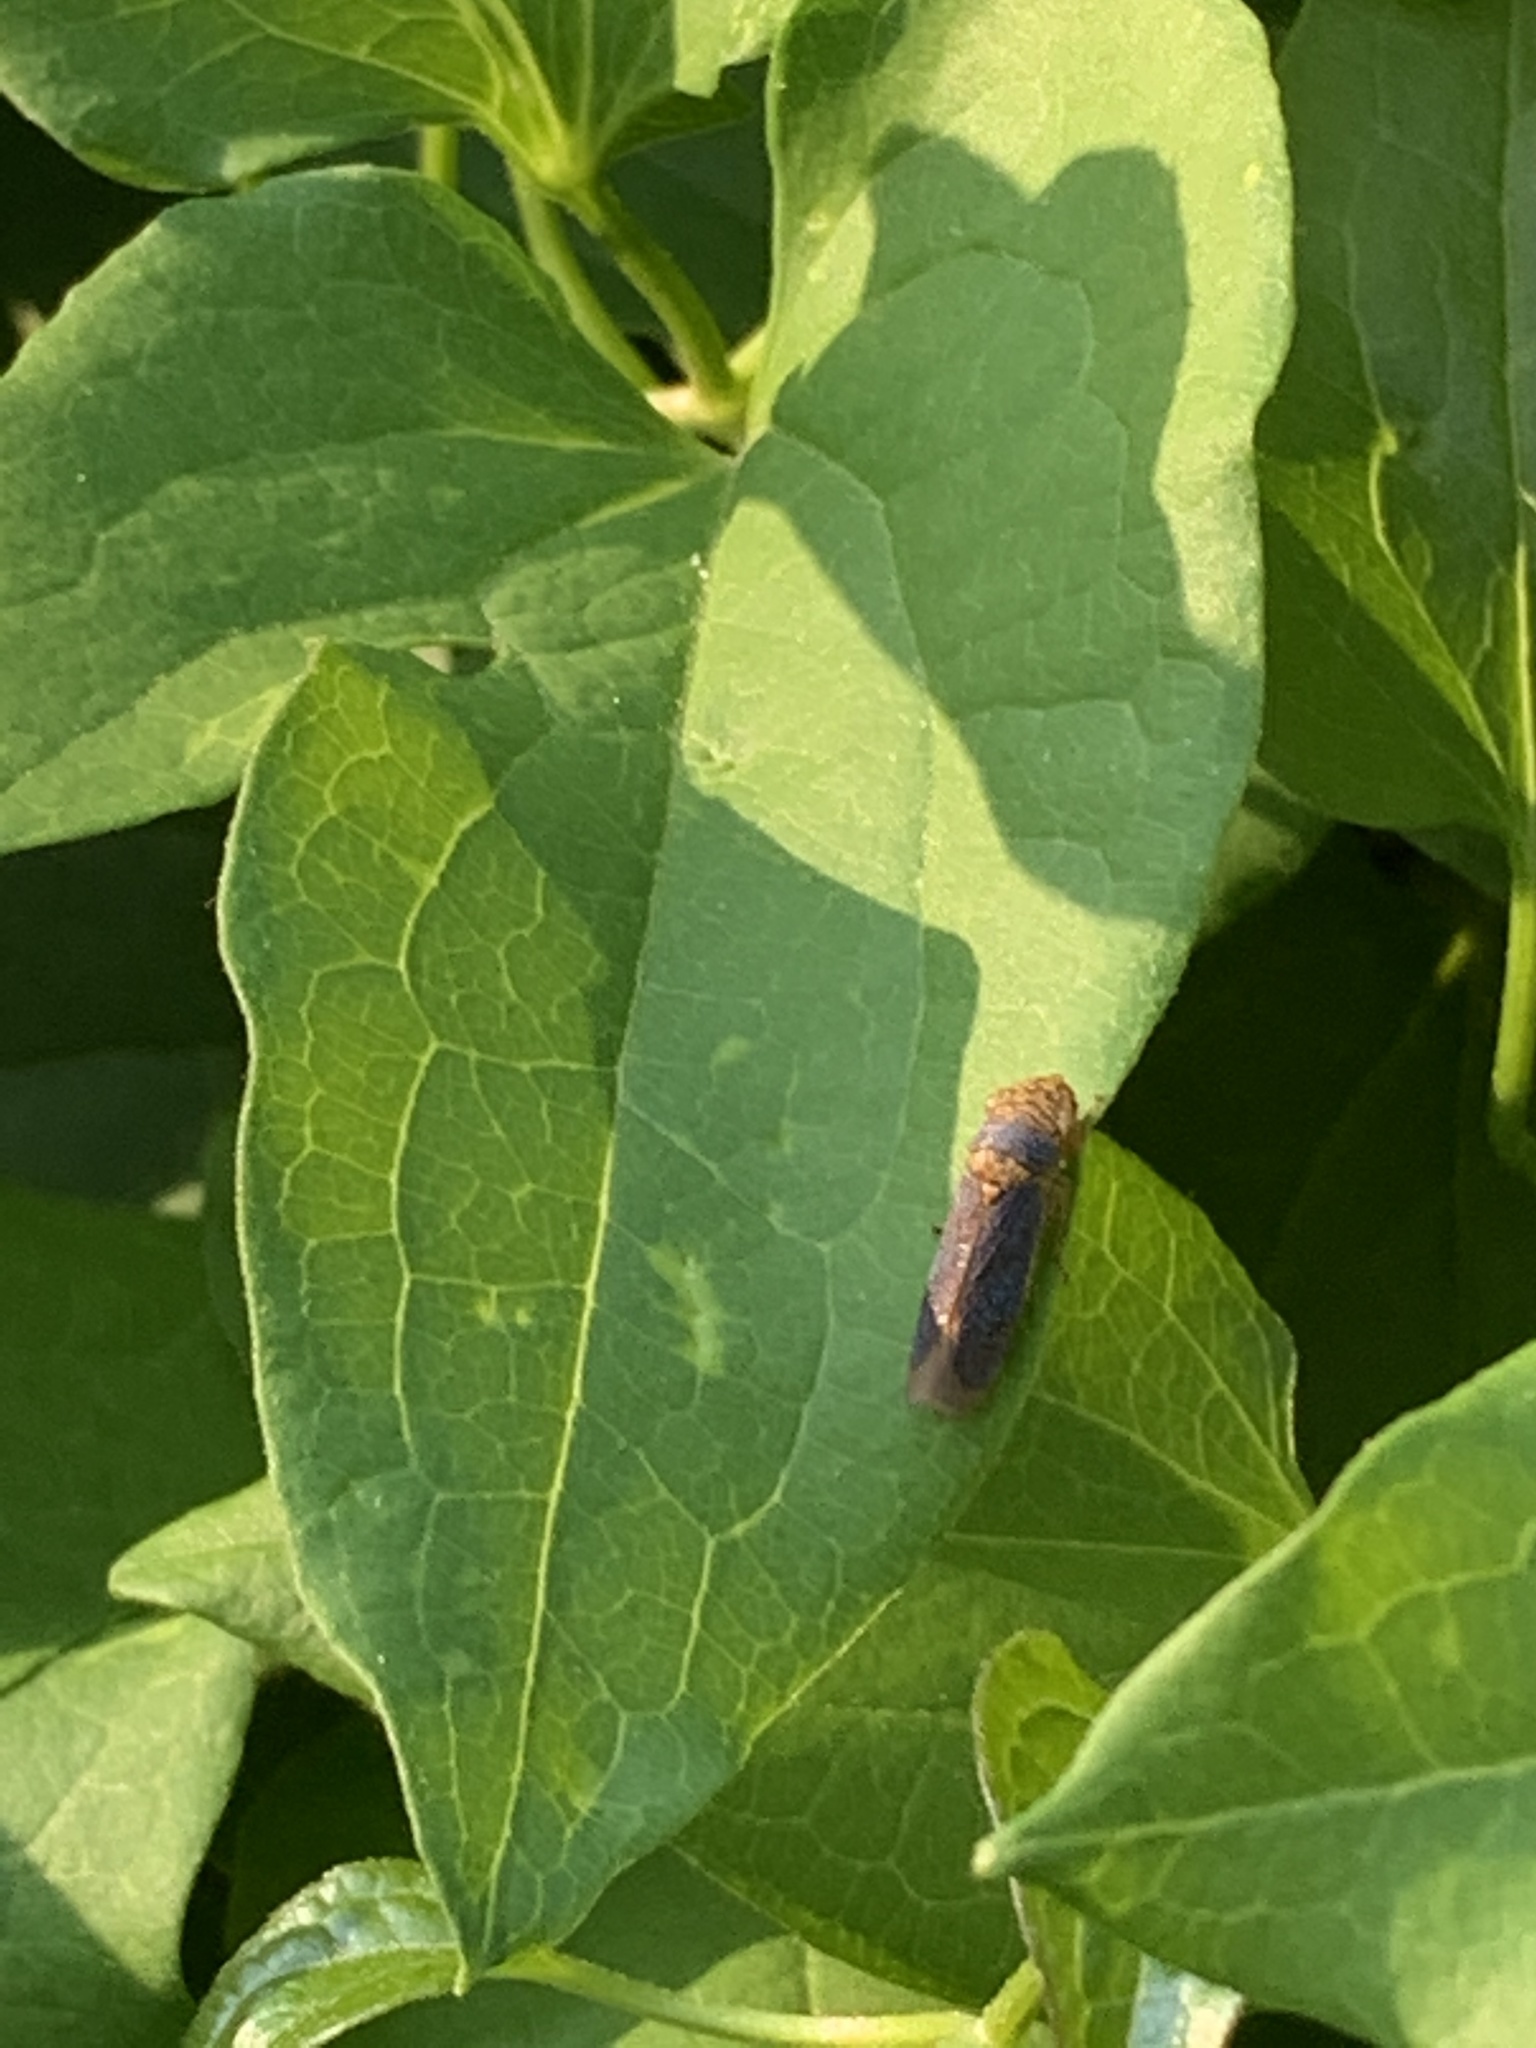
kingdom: Animalia
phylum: Arthropoda
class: Insecta
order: Hemiptera
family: Cicadellidae
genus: Oncometopia
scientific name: Oncometopia orbona
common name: Broad-headed sharpshooter
